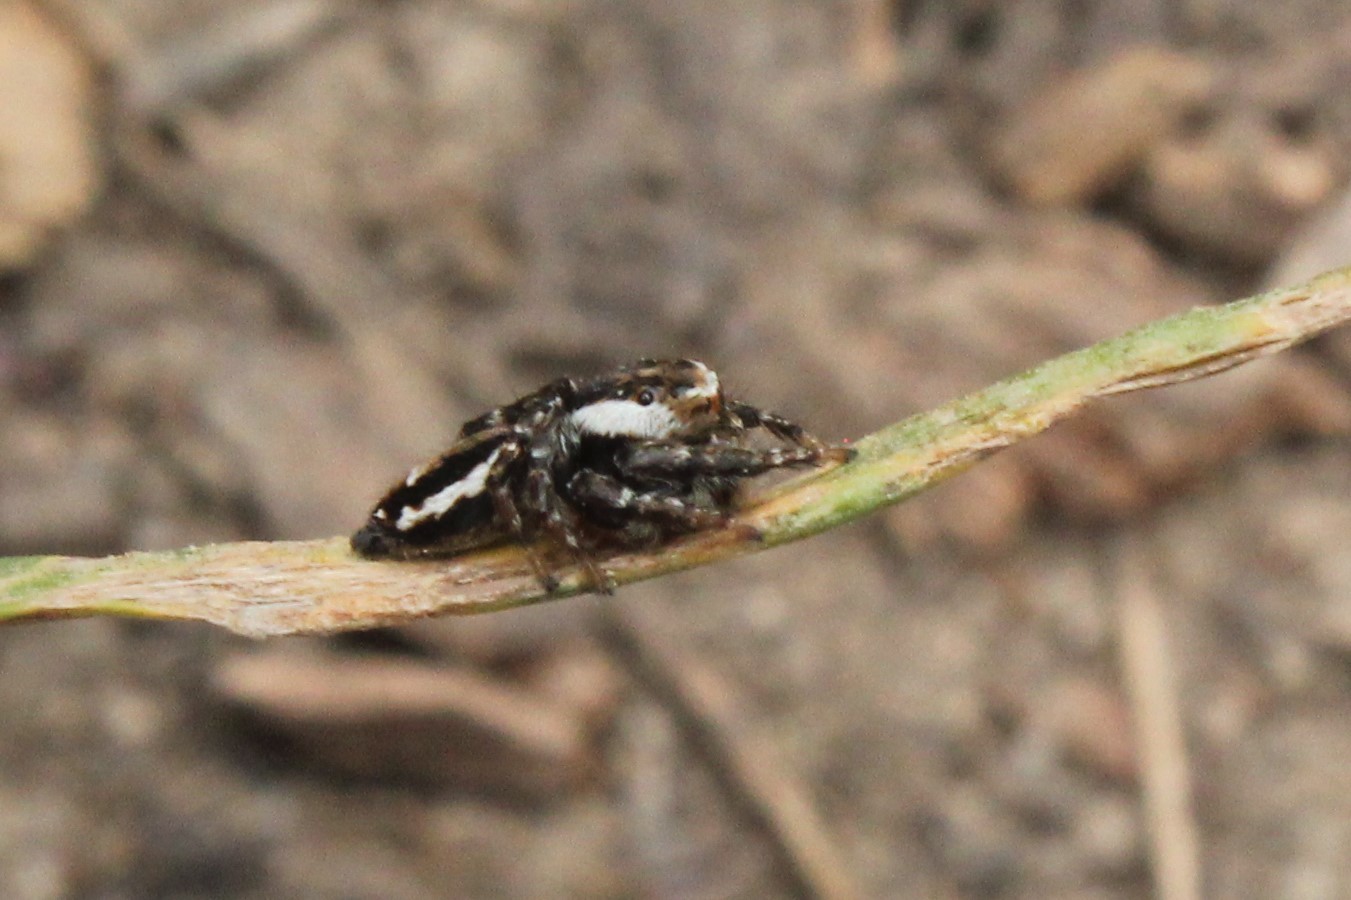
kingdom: Animalia
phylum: Arthropoda
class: Arachnida
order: Araneae
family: Salticidae
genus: Evarcha
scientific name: Evarcha hoyi
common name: Hoy's jumping spider
